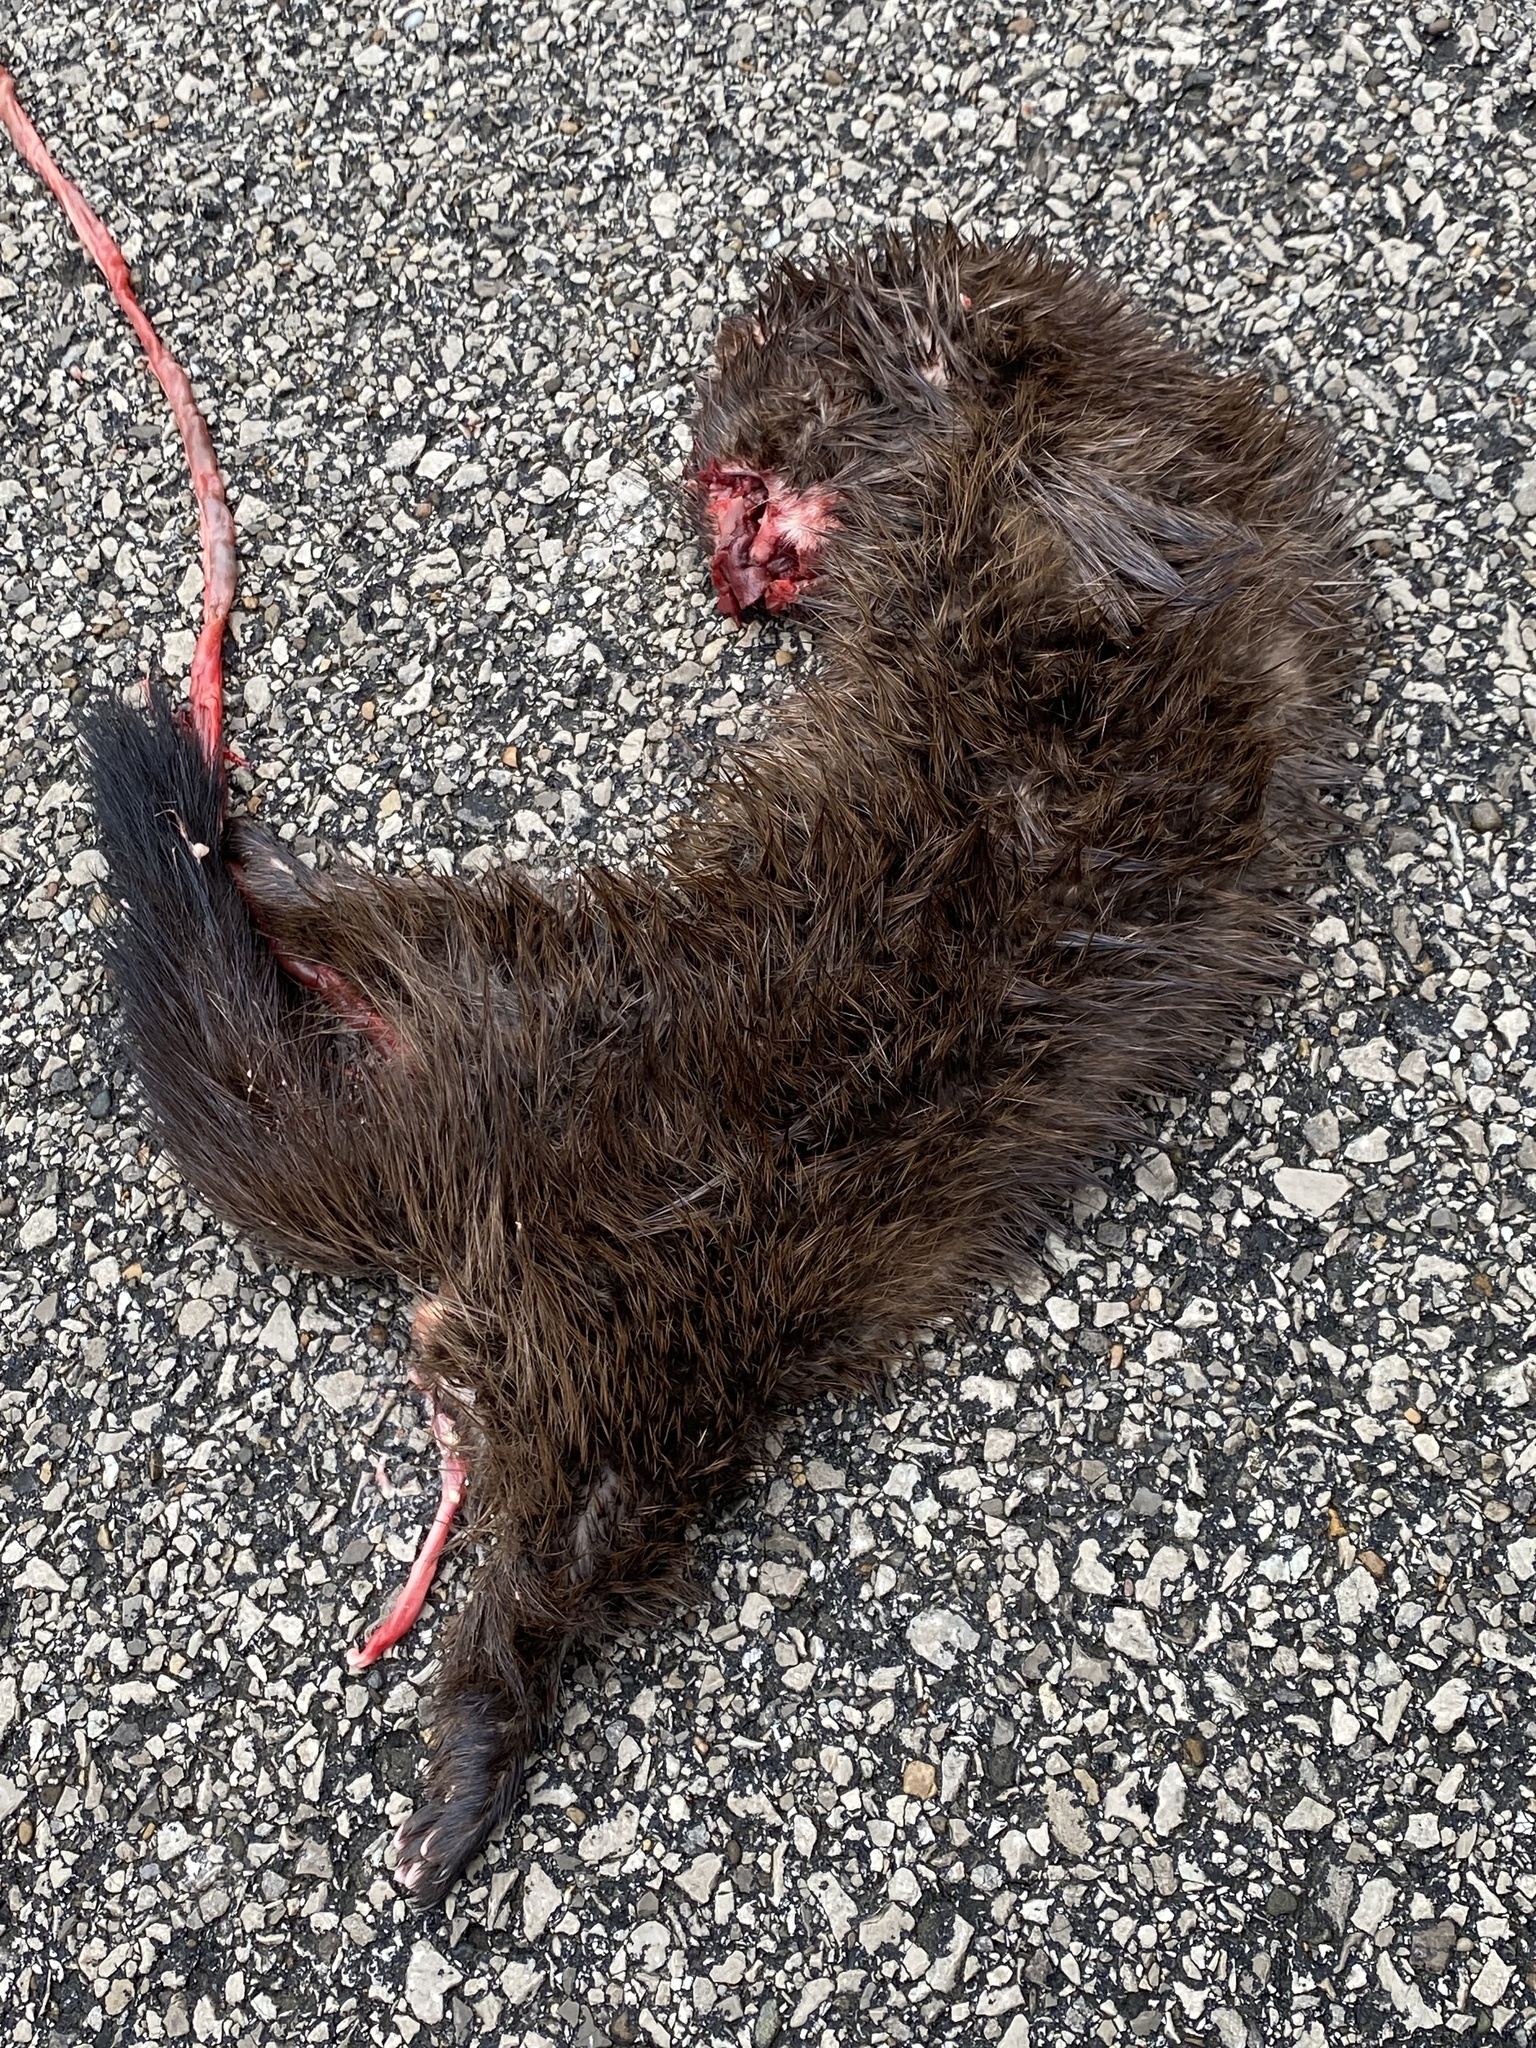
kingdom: Animalia
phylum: Chordata
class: Mammalia
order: Carnivora
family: Mustelidae
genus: Mustela
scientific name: Mustela
